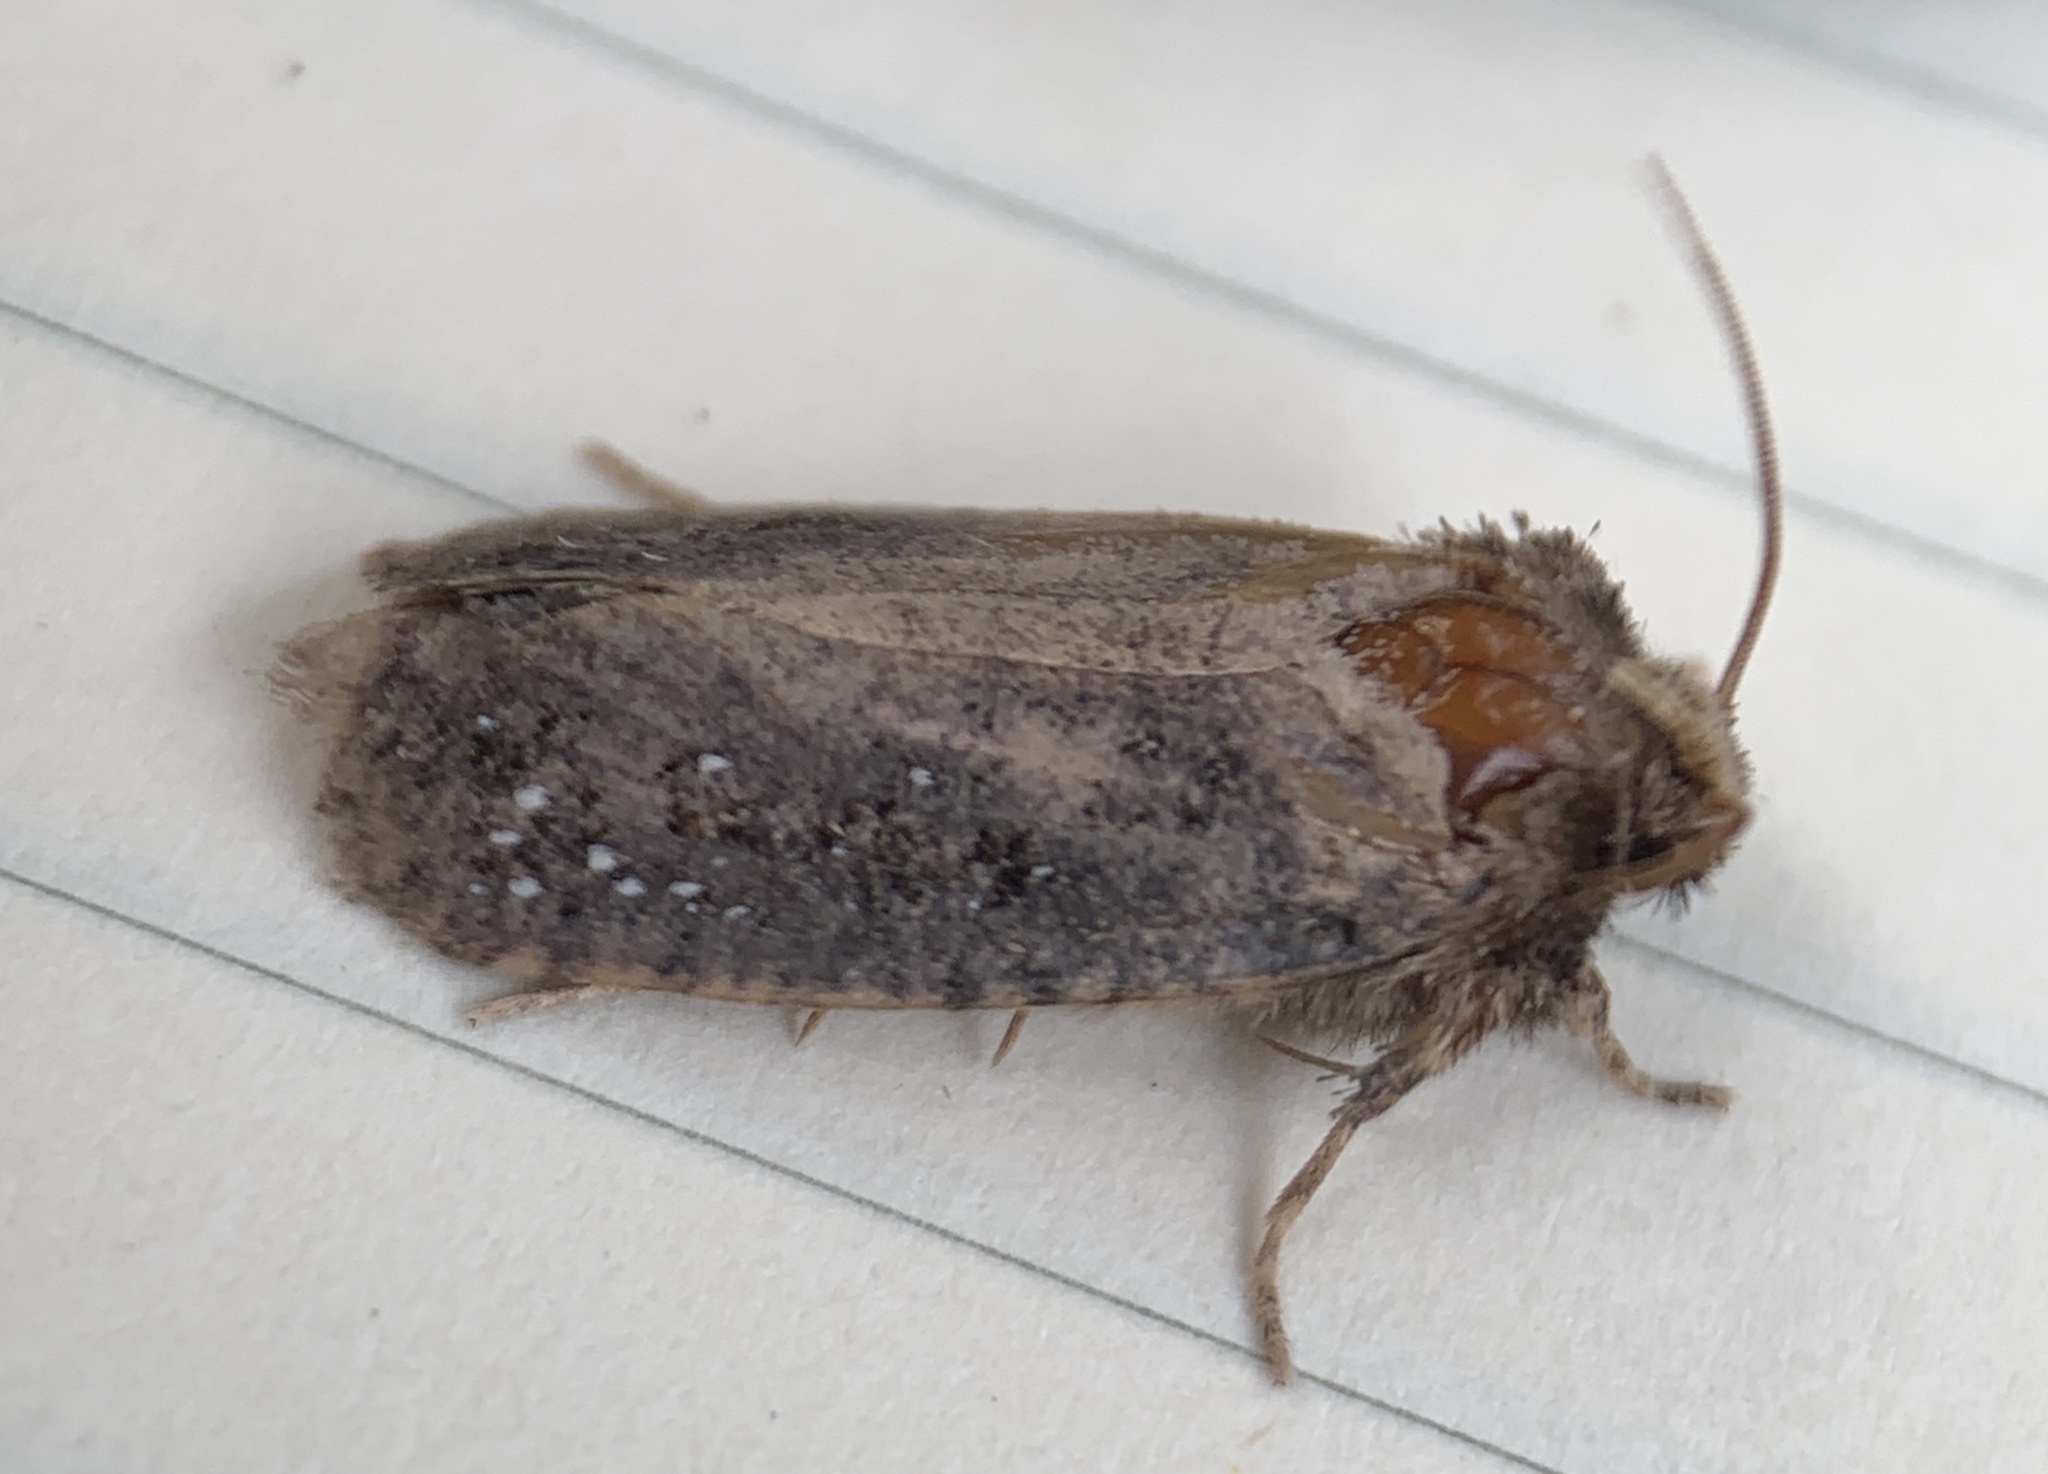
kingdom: Animalia
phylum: Arthropoda
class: Insecta
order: Lepidoptera
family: Tineidae
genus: Acrolophus
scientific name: Acrolophus arcanella
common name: Arcane grass tubeworm moth
